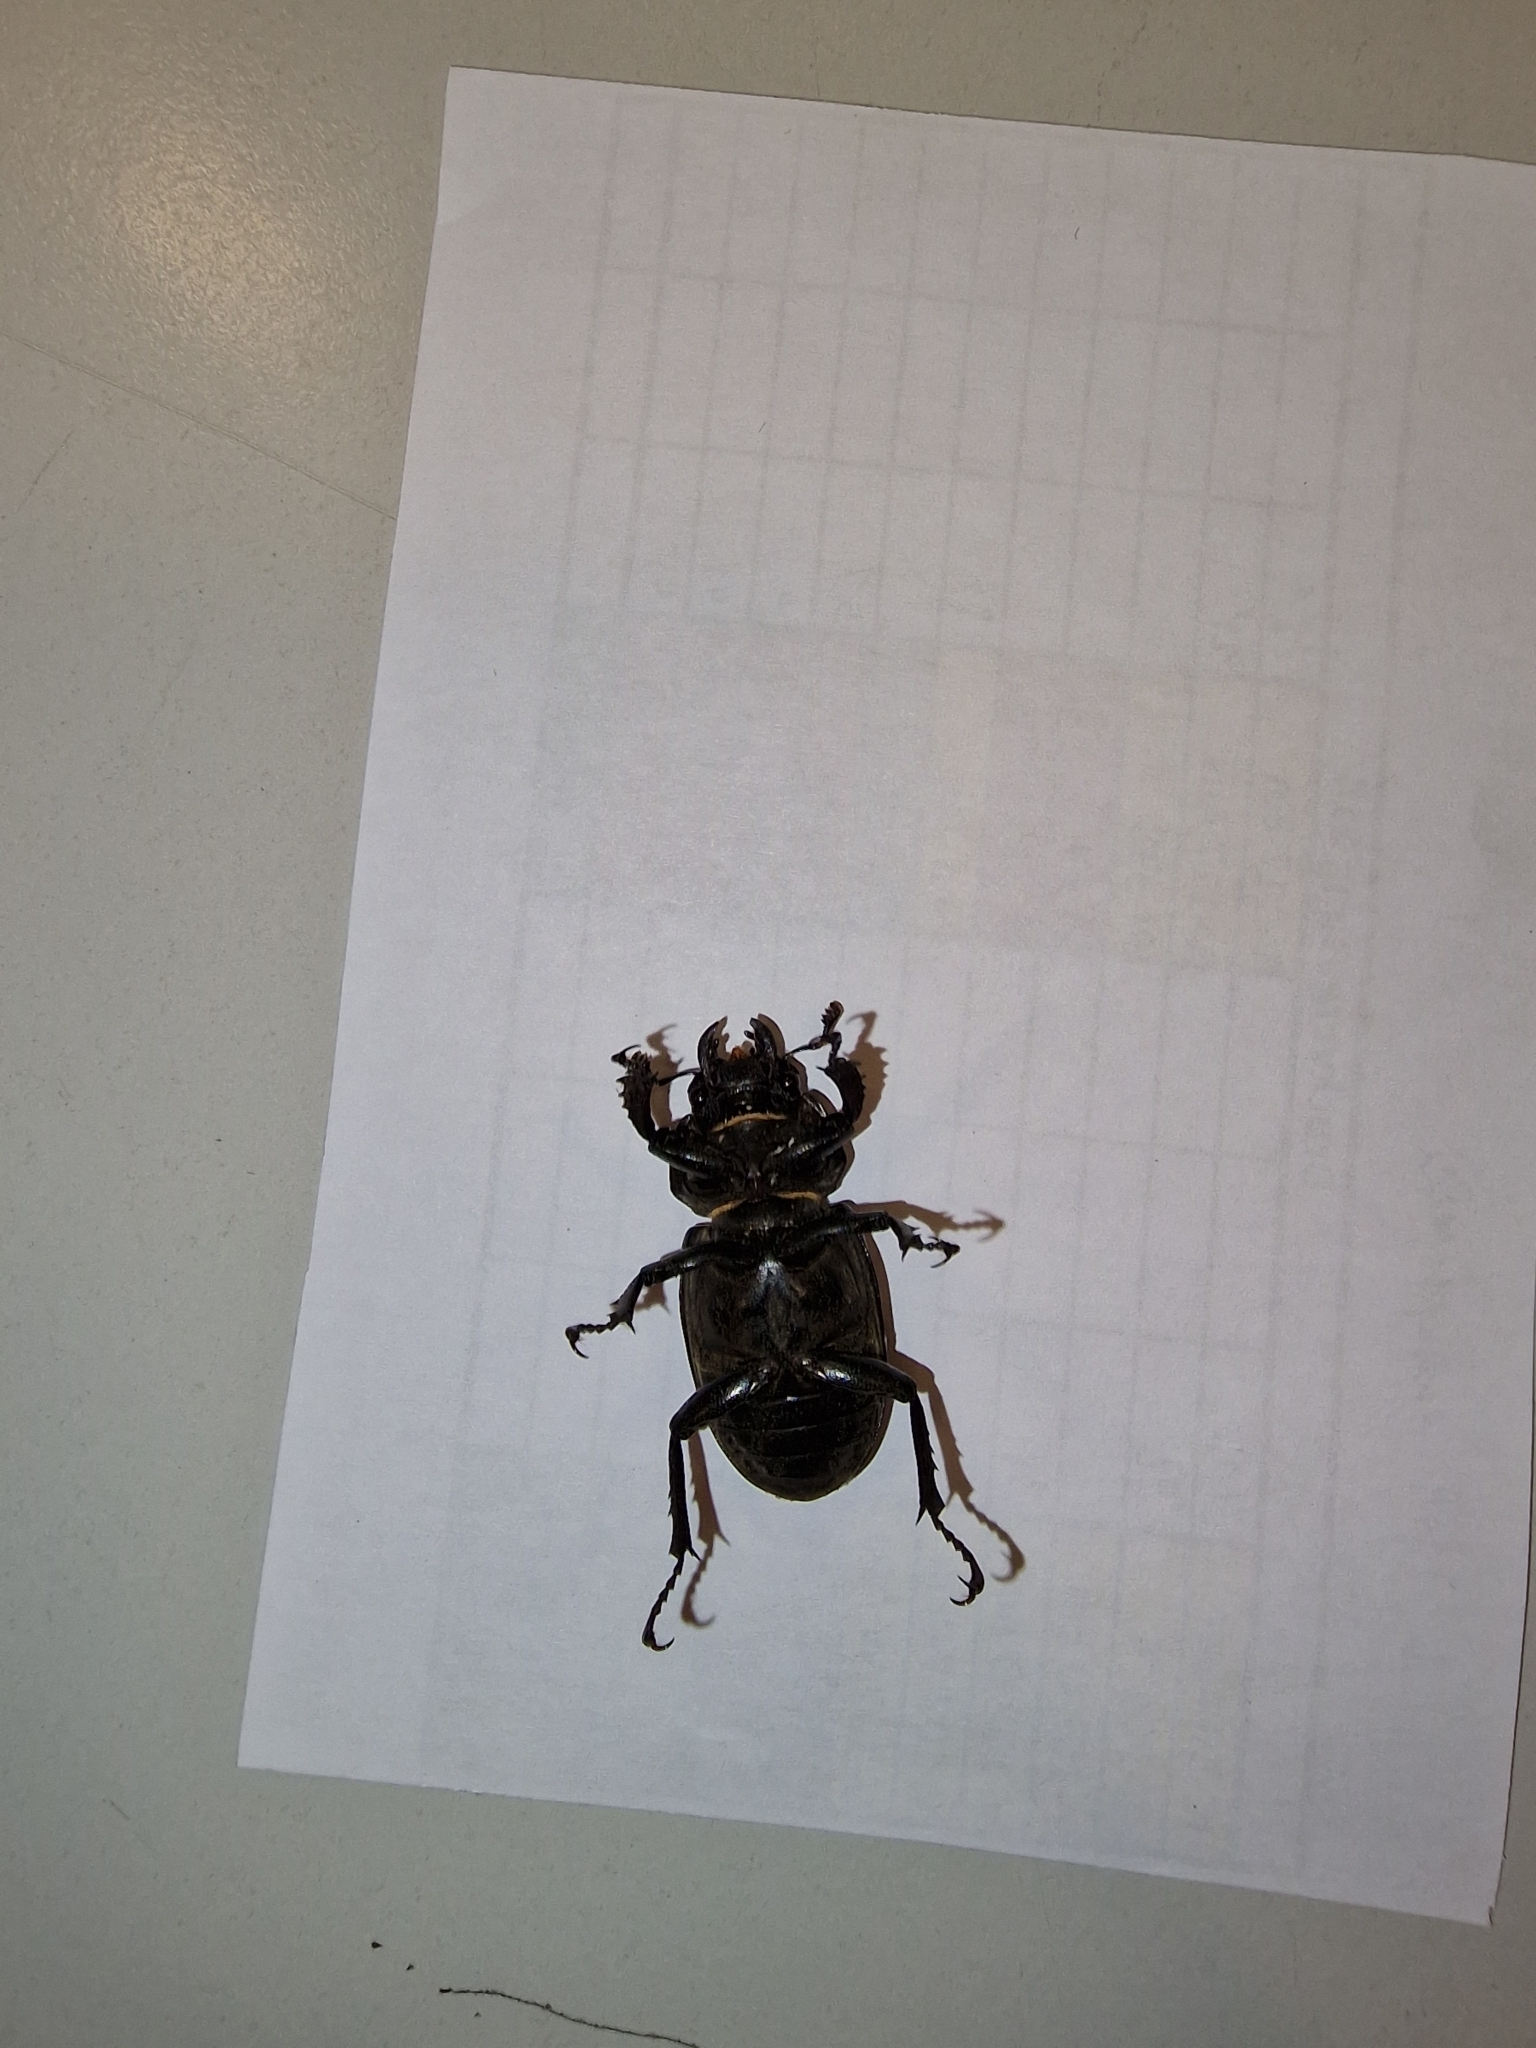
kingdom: Animalia
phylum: Arthropoda
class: Insecta
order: Coleoptera
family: Lucanidae
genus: Lucanus
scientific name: Lucanus cervus
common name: Stag beetle
